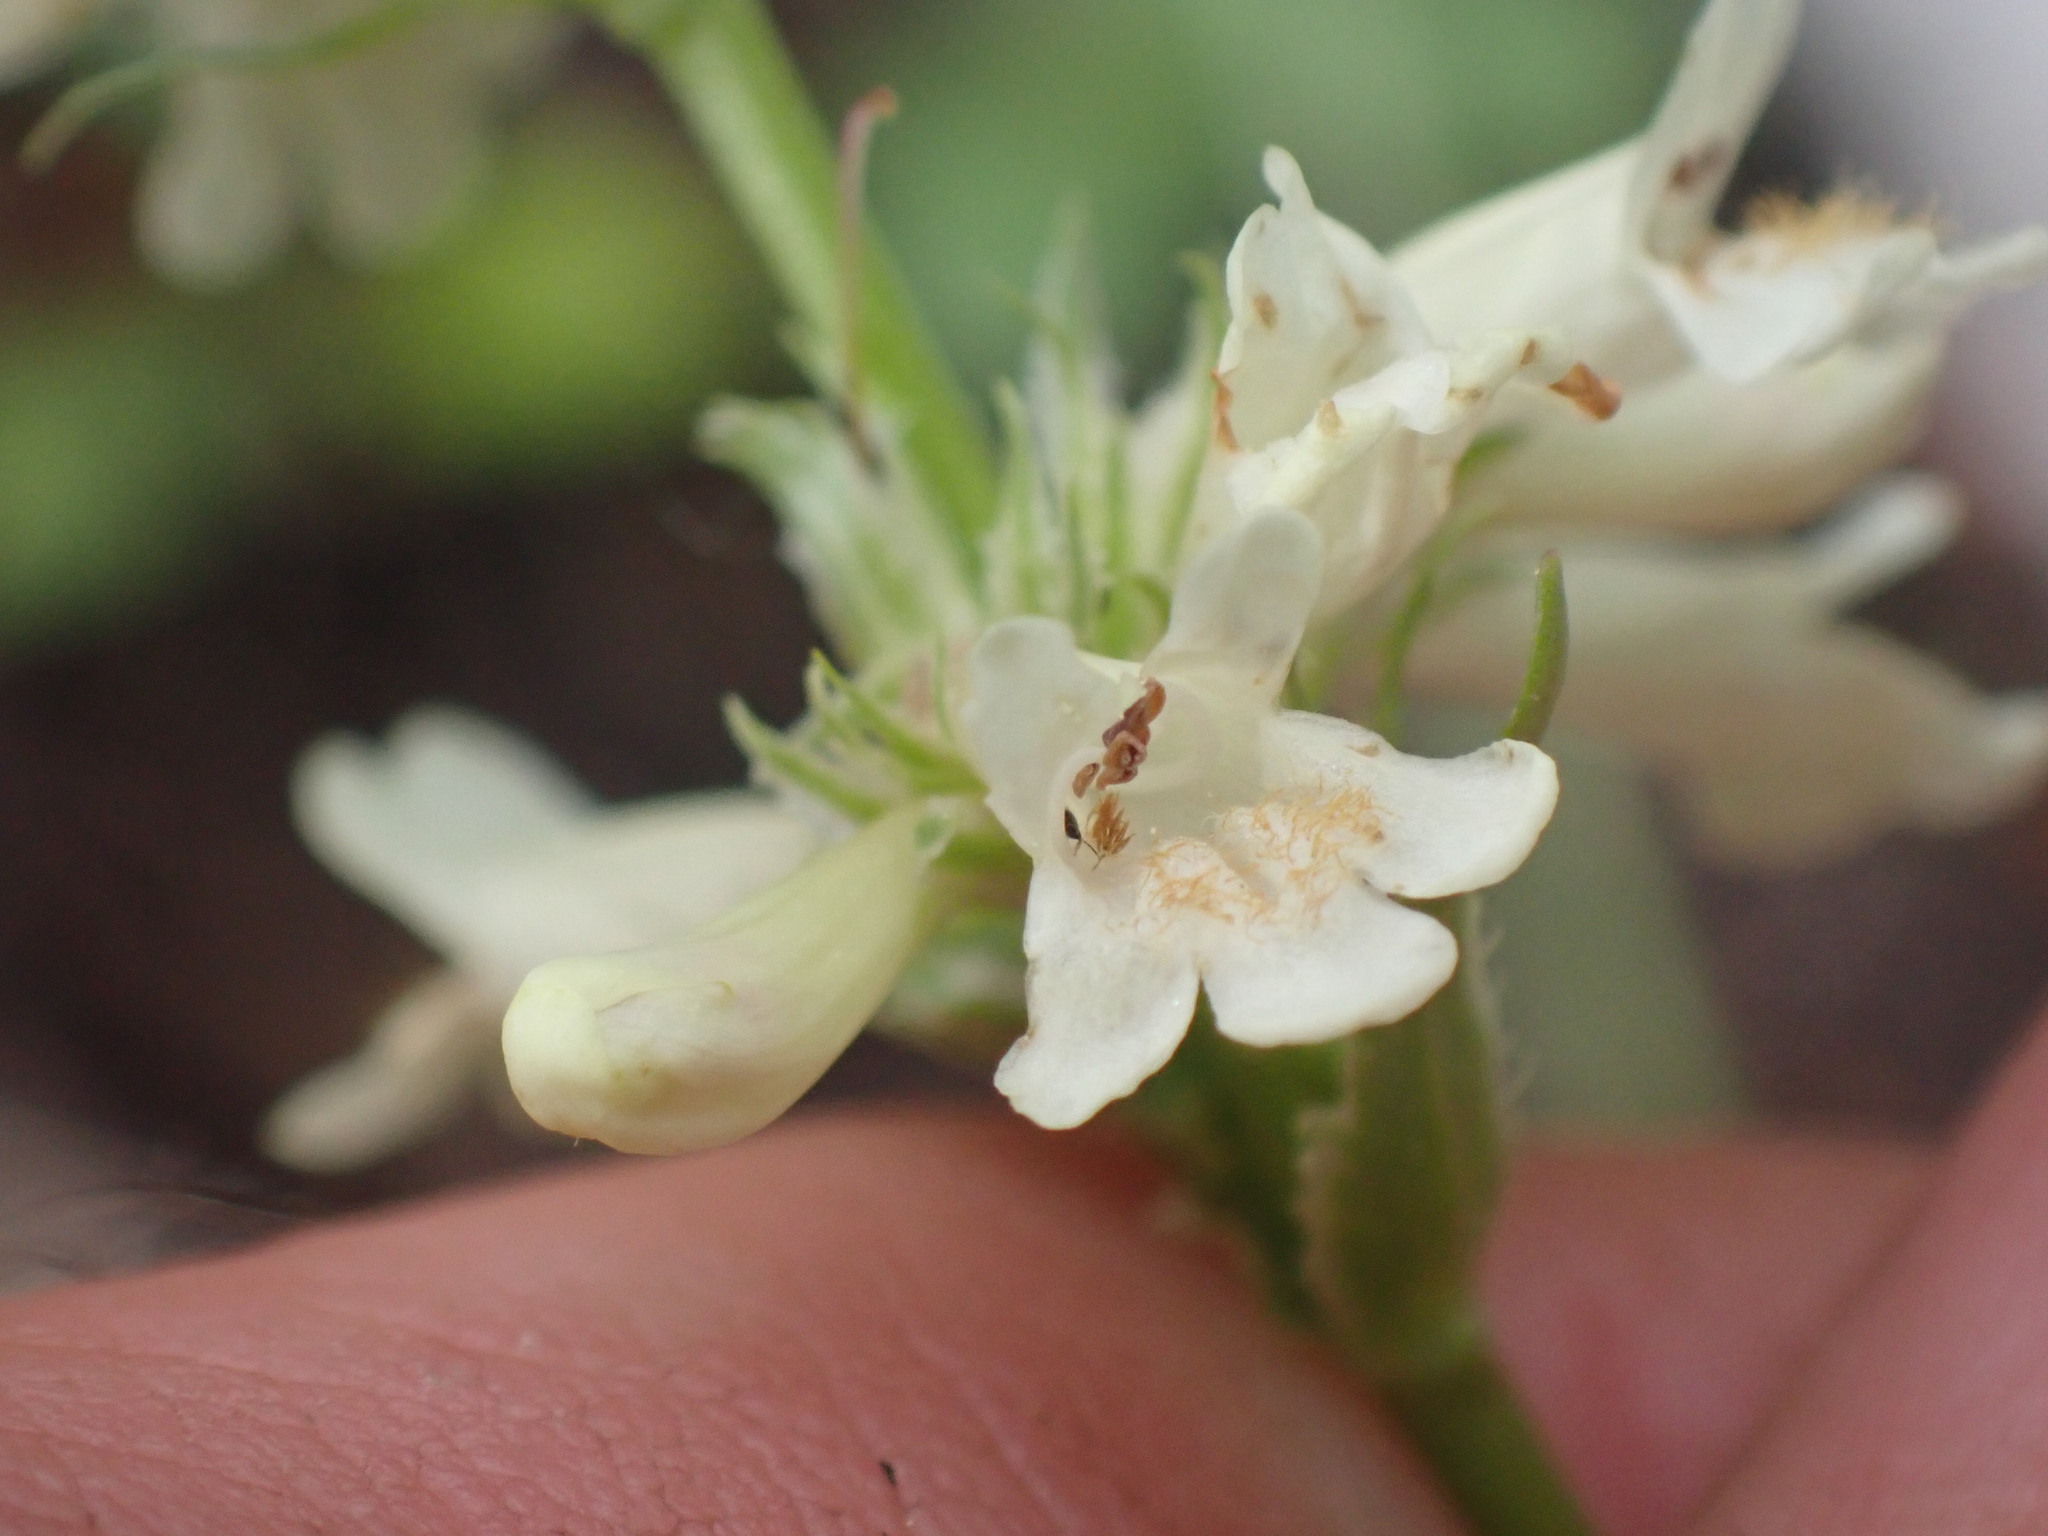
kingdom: Plantae
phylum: Tracheophyta
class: Magnoliopsida
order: Lamiales
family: Plantaginaceae
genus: Penstemon
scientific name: Penstemon confertus
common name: Lesser yellow beardtongue
